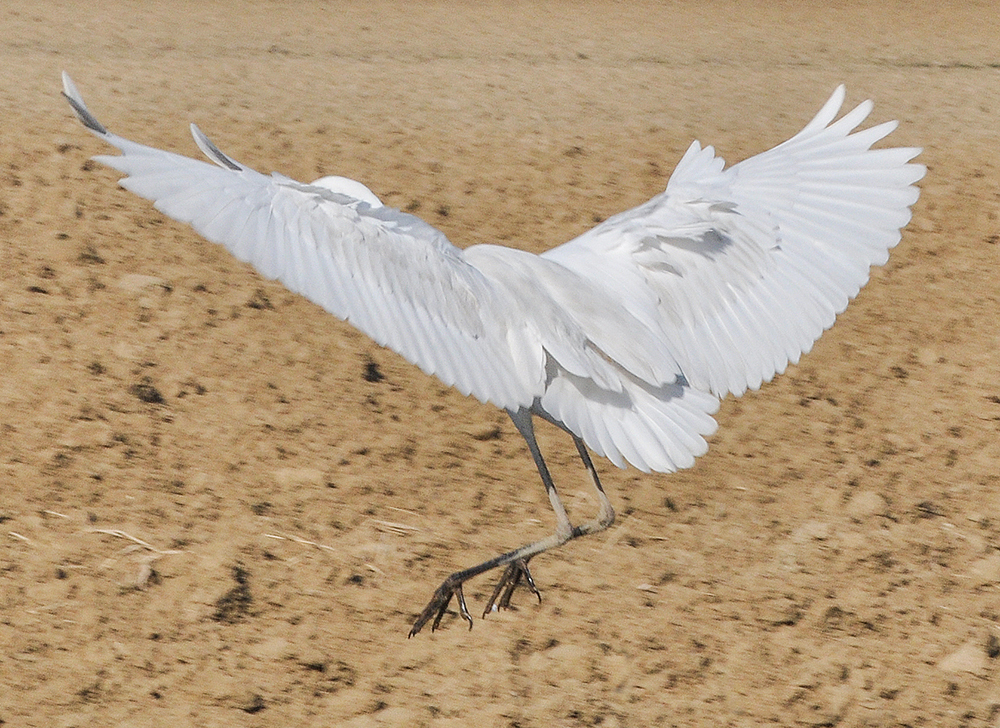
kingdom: Animalia
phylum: Chordata
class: Aves
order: Pelecaniformes
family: Ardeidae
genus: Ardea
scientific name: Ardea alba
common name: Great egret
